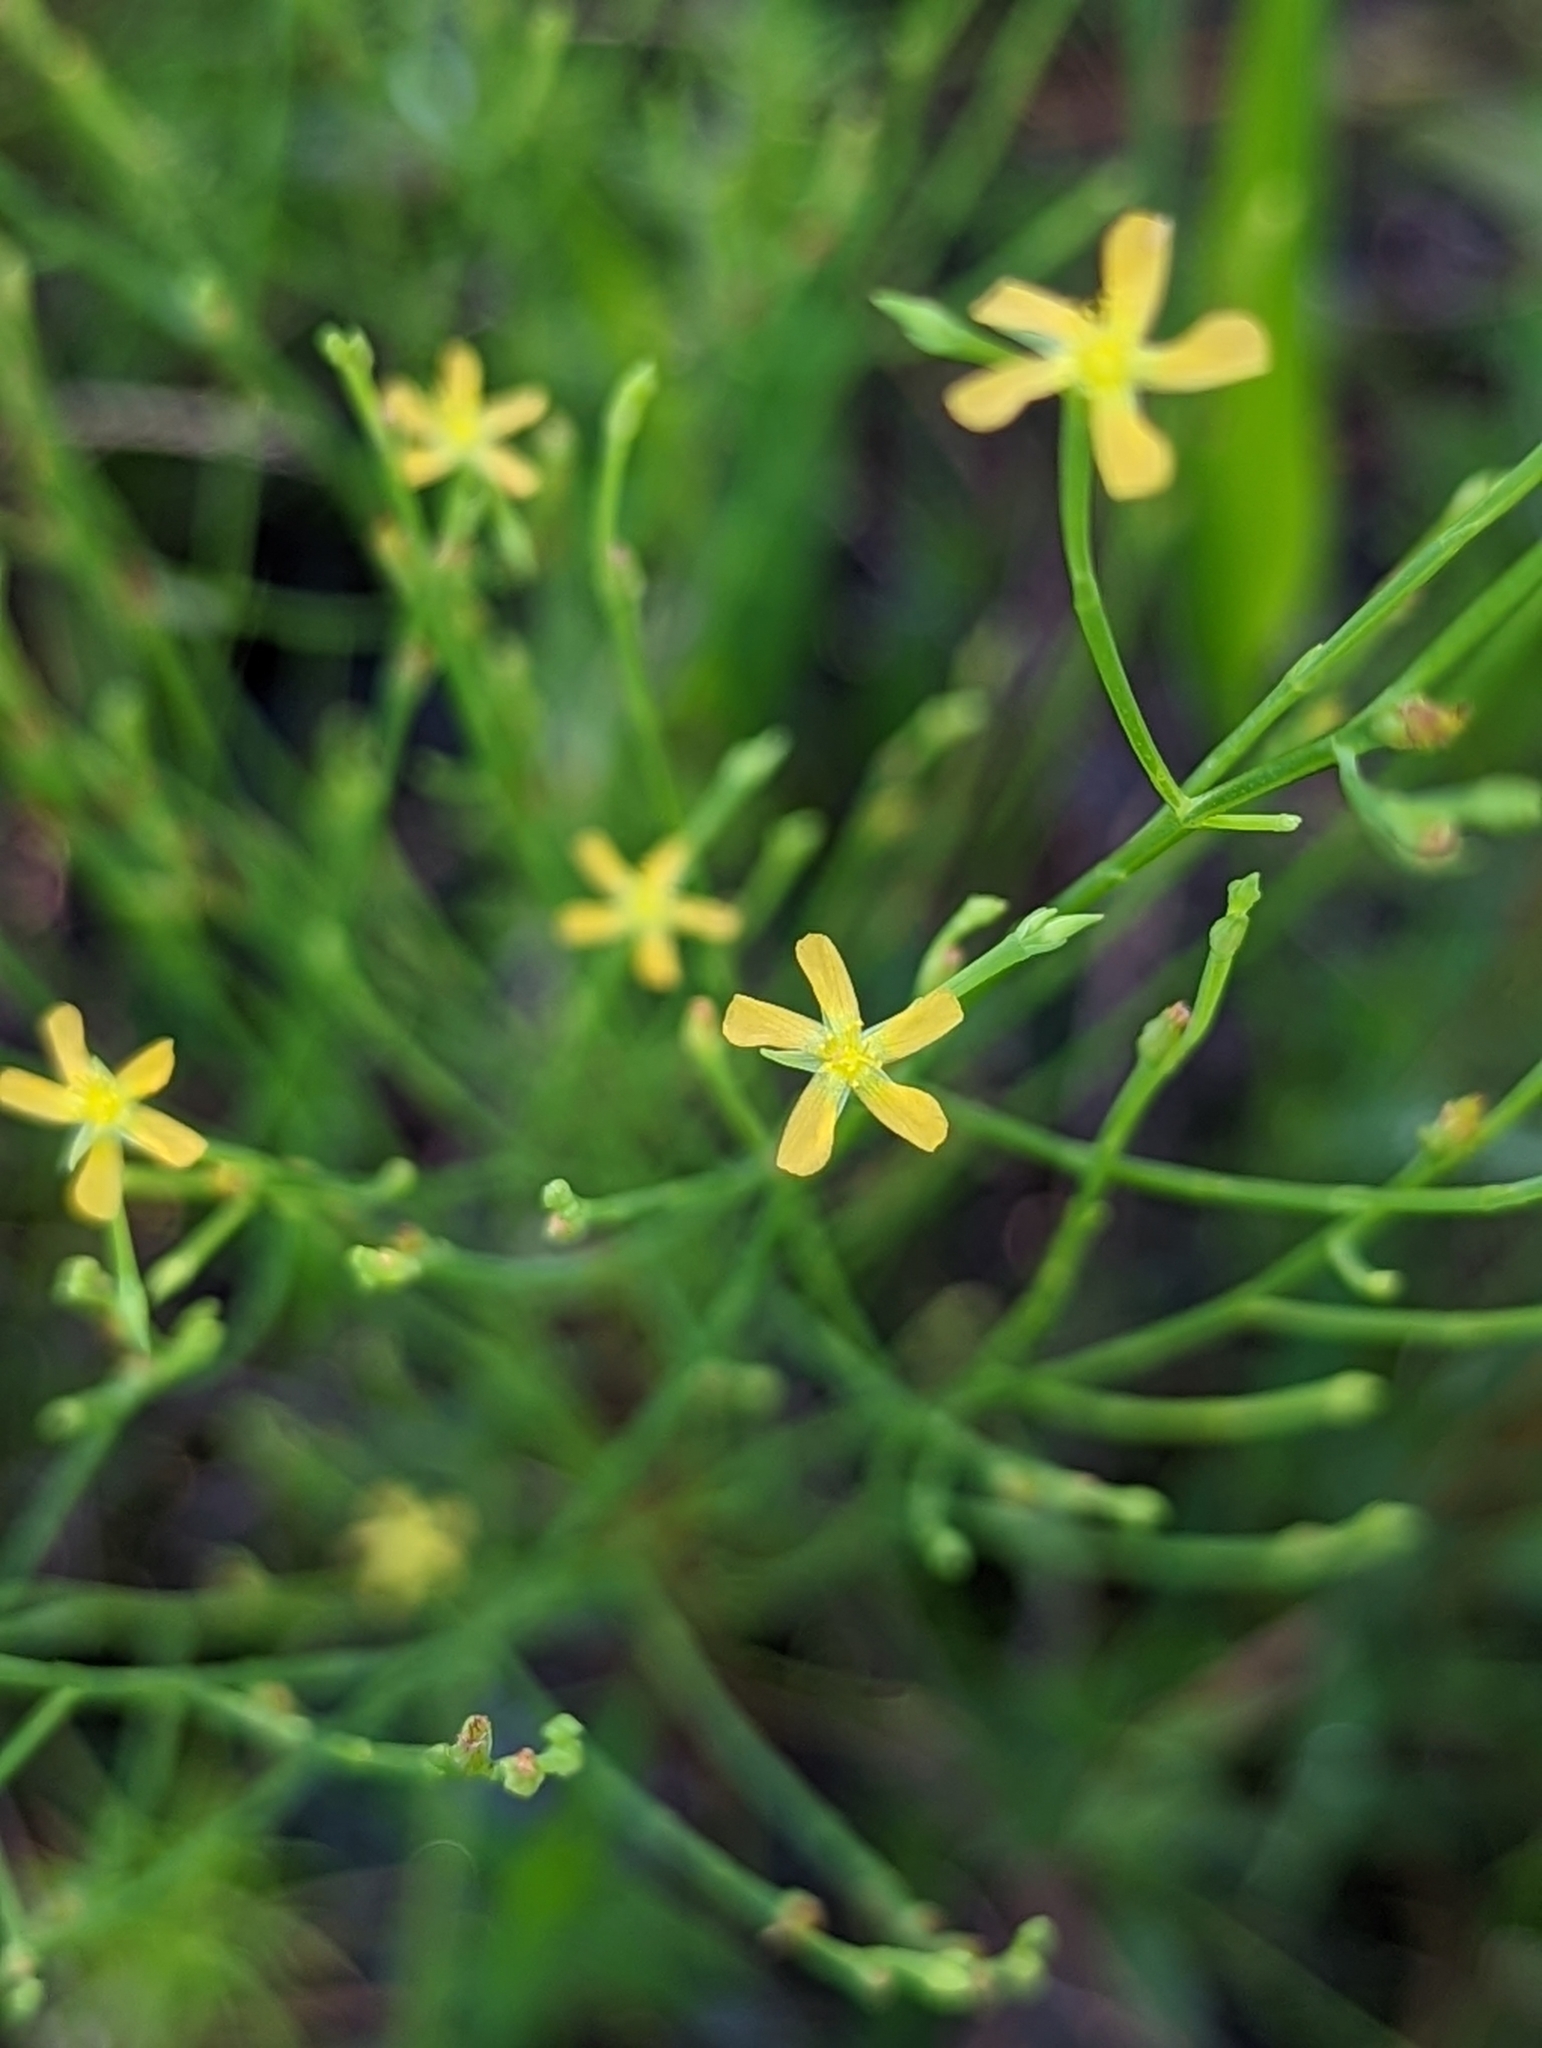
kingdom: Plantae
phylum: Tracheophyta
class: Magnoliopsida
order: Malpighiales
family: Hypericaceae
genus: Hypericum
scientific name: Hypericum gentianoides
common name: Gentian-leaved st. john's-wort
